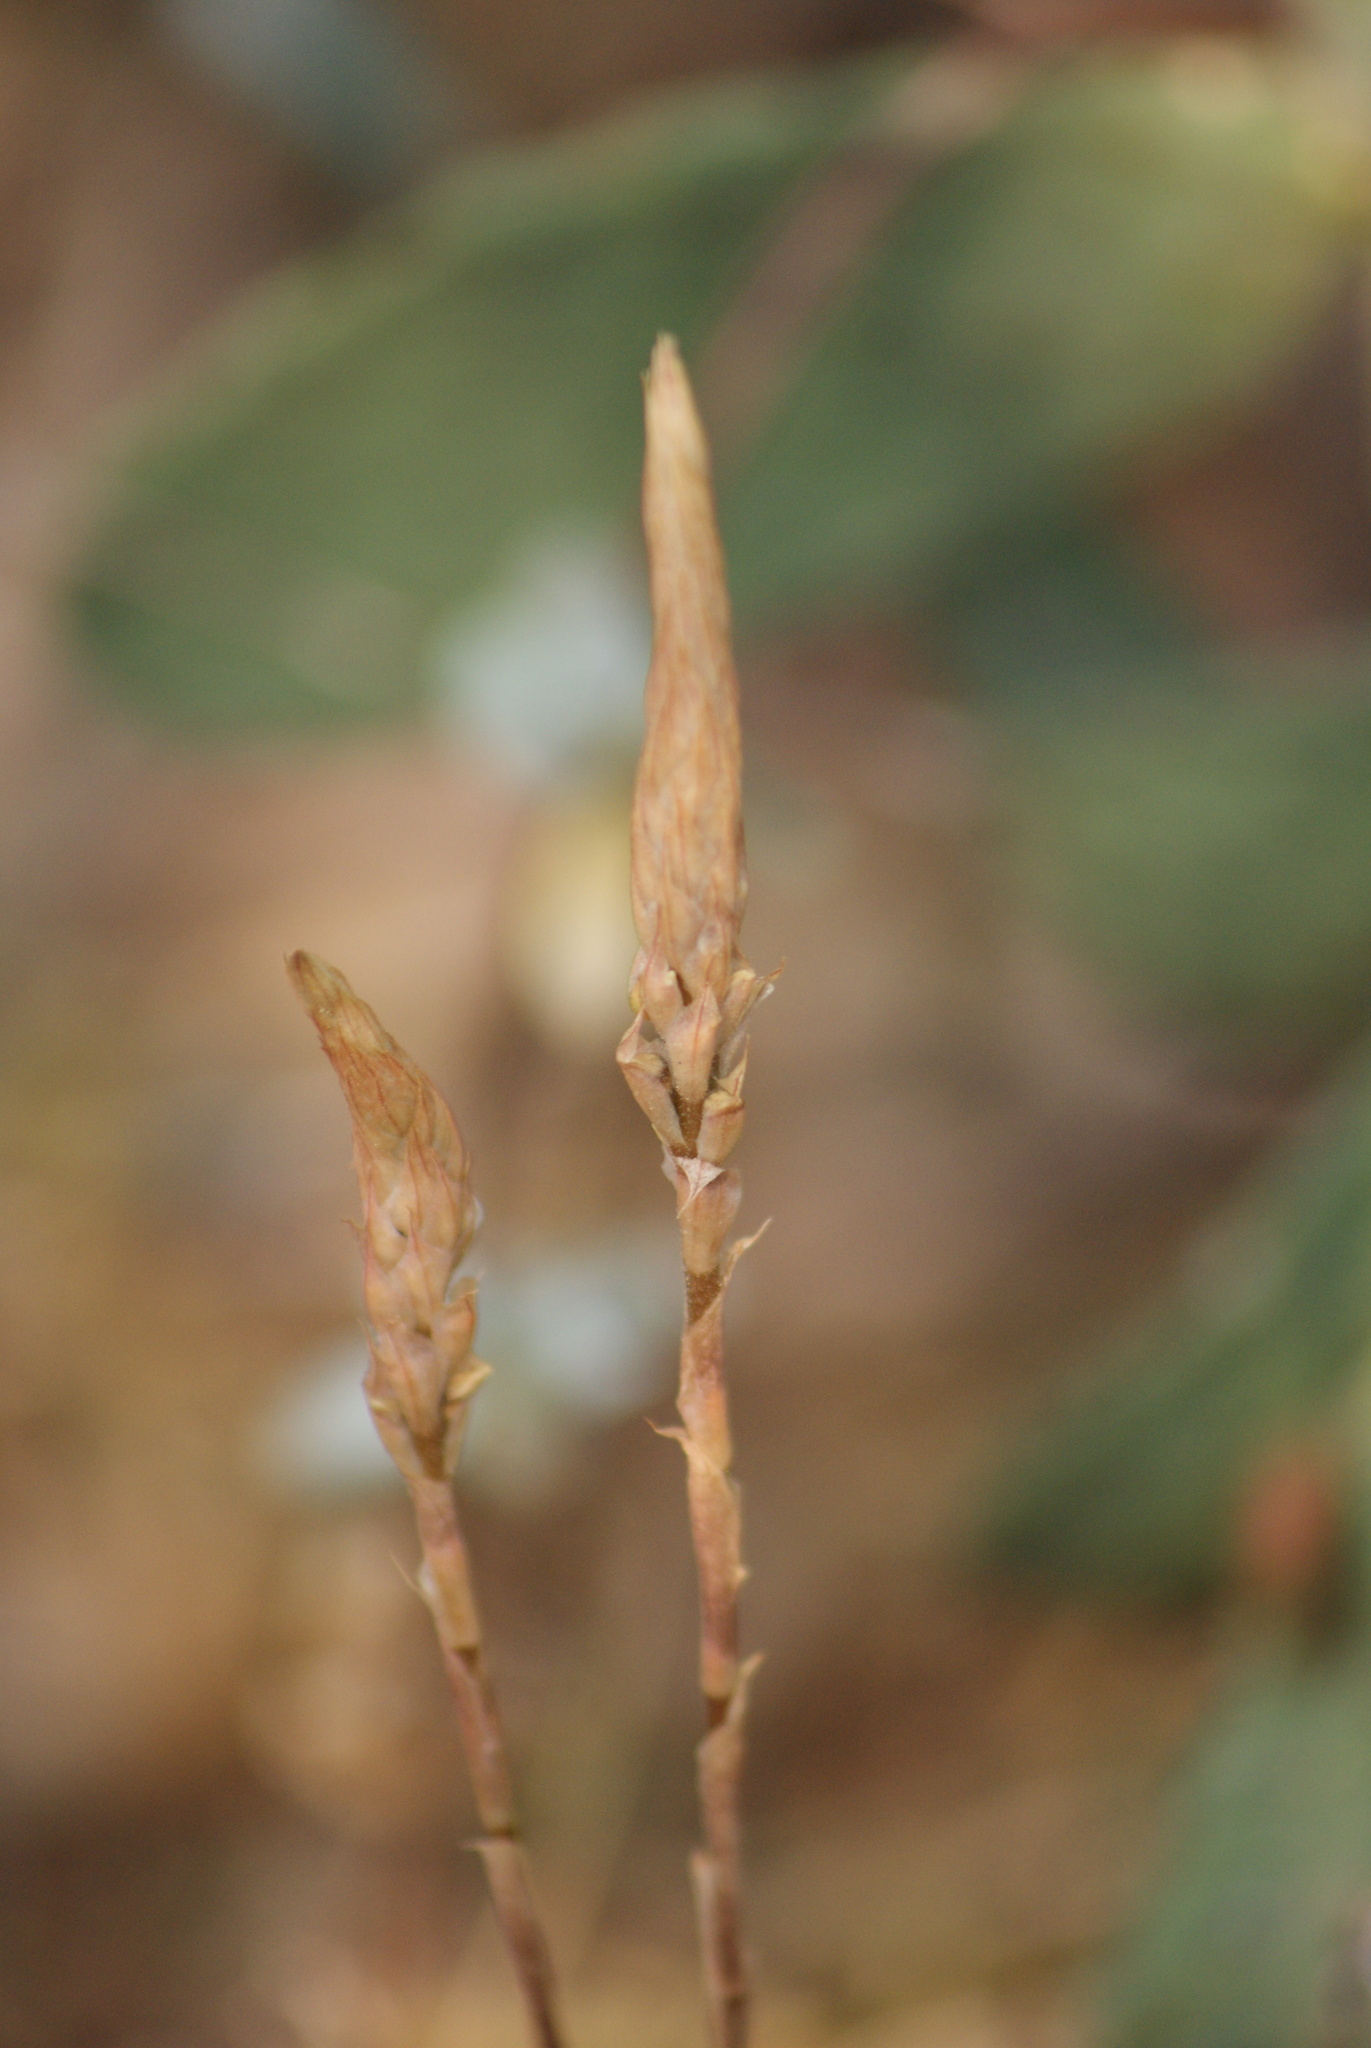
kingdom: Plantae
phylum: Tracheophyta
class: Liliopsida
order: Asparagales
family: Orchidaceae
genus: Aulosepalum
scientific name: Aulosepalum pyramidale
